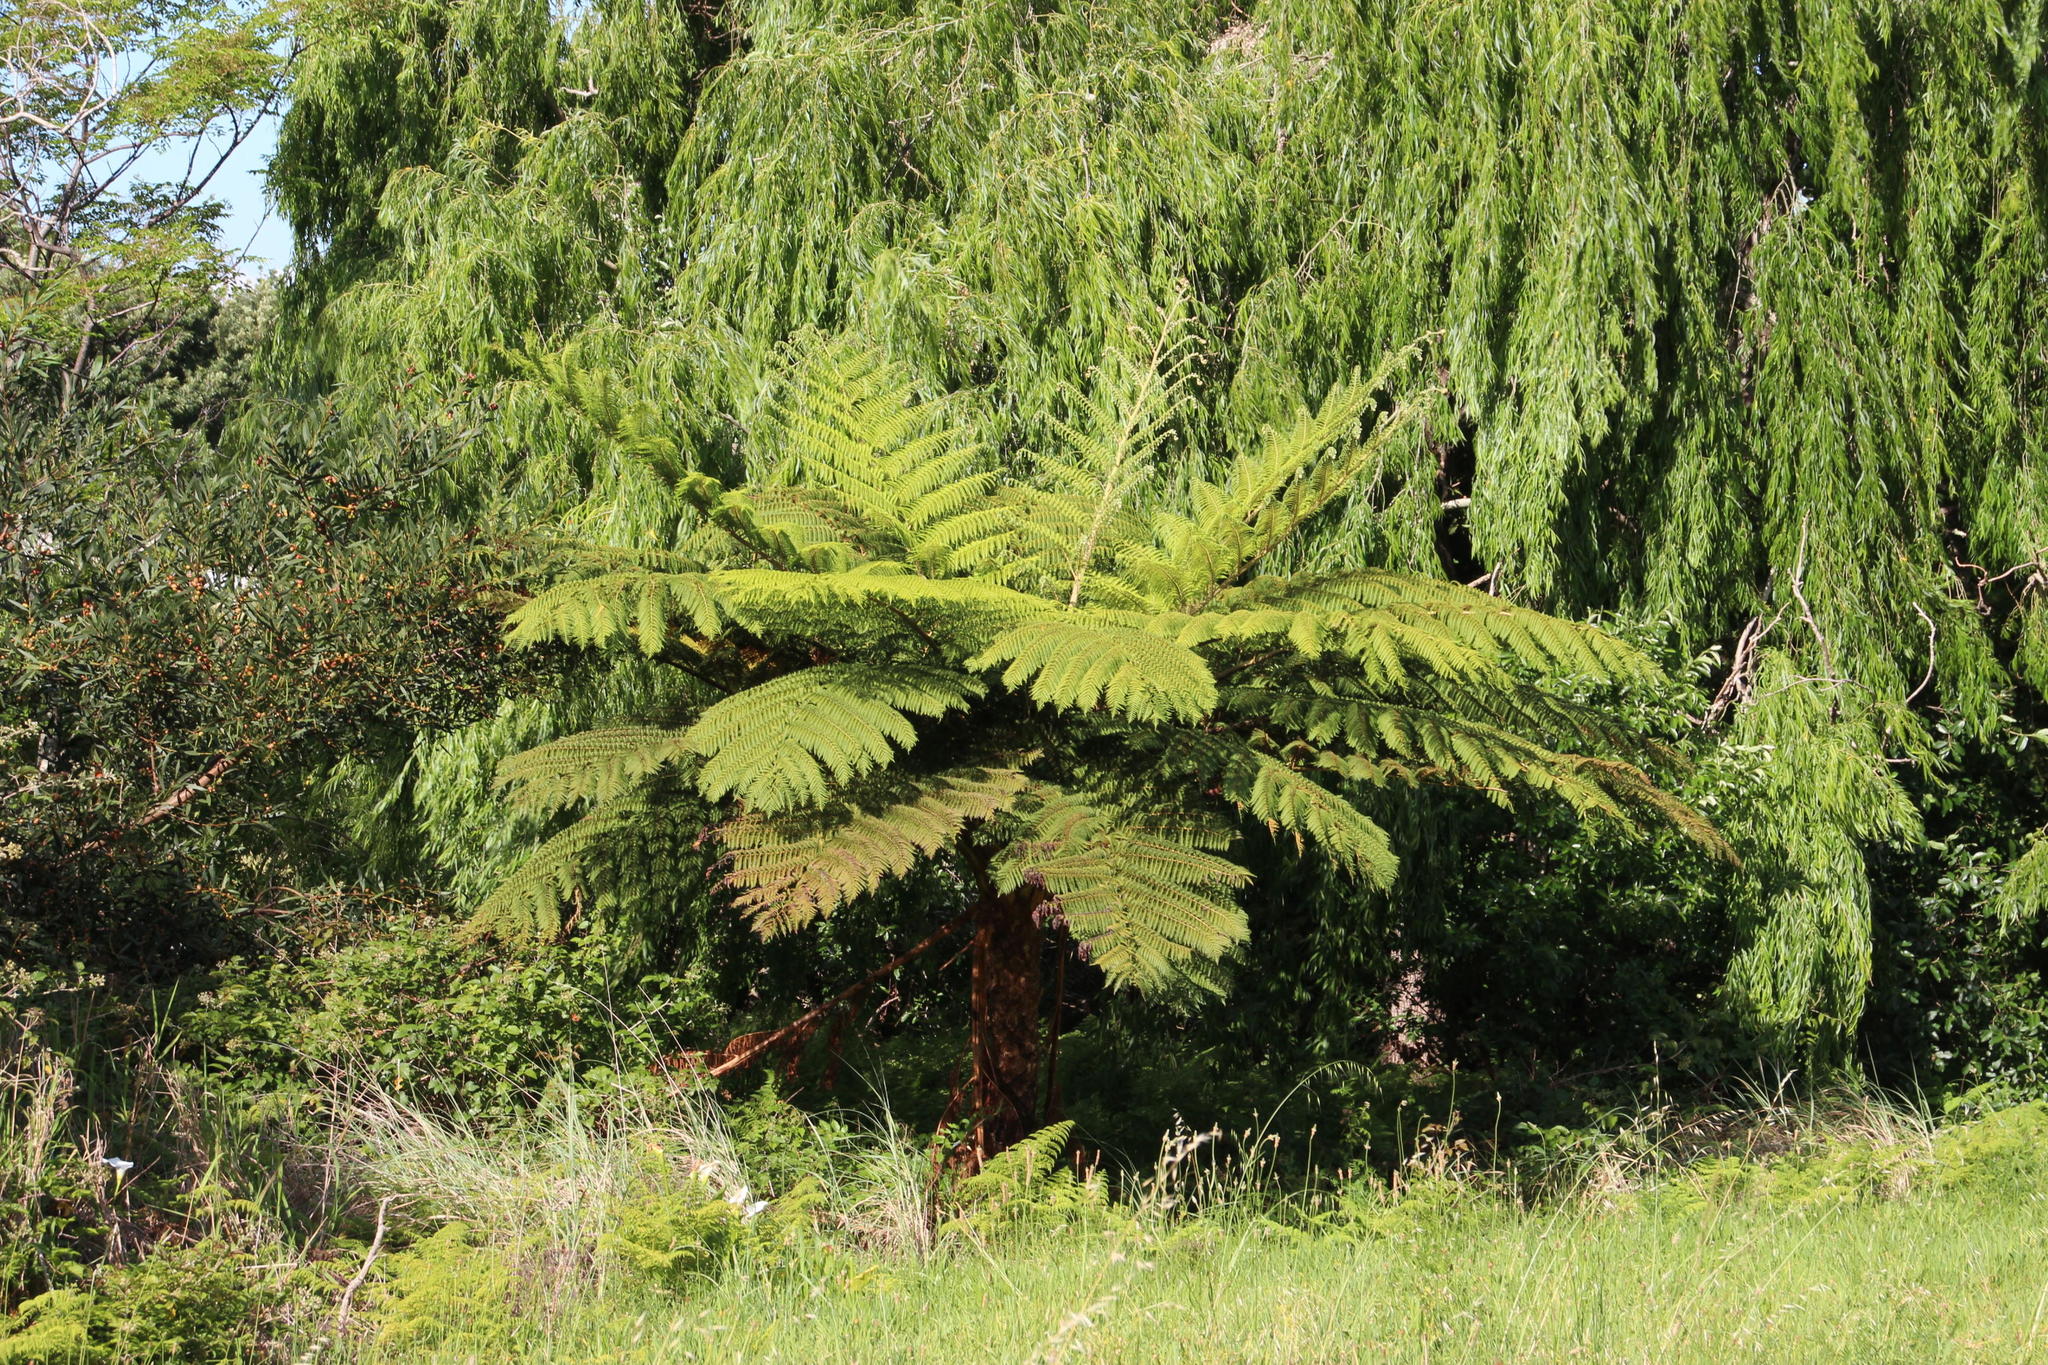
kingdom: Plantae
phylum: Tracheophyta
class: Polypodiopsida
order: Cyatheales
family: Cyatheaceae
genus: Sphaeropteris
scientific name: Sphaeropteris cooperi
